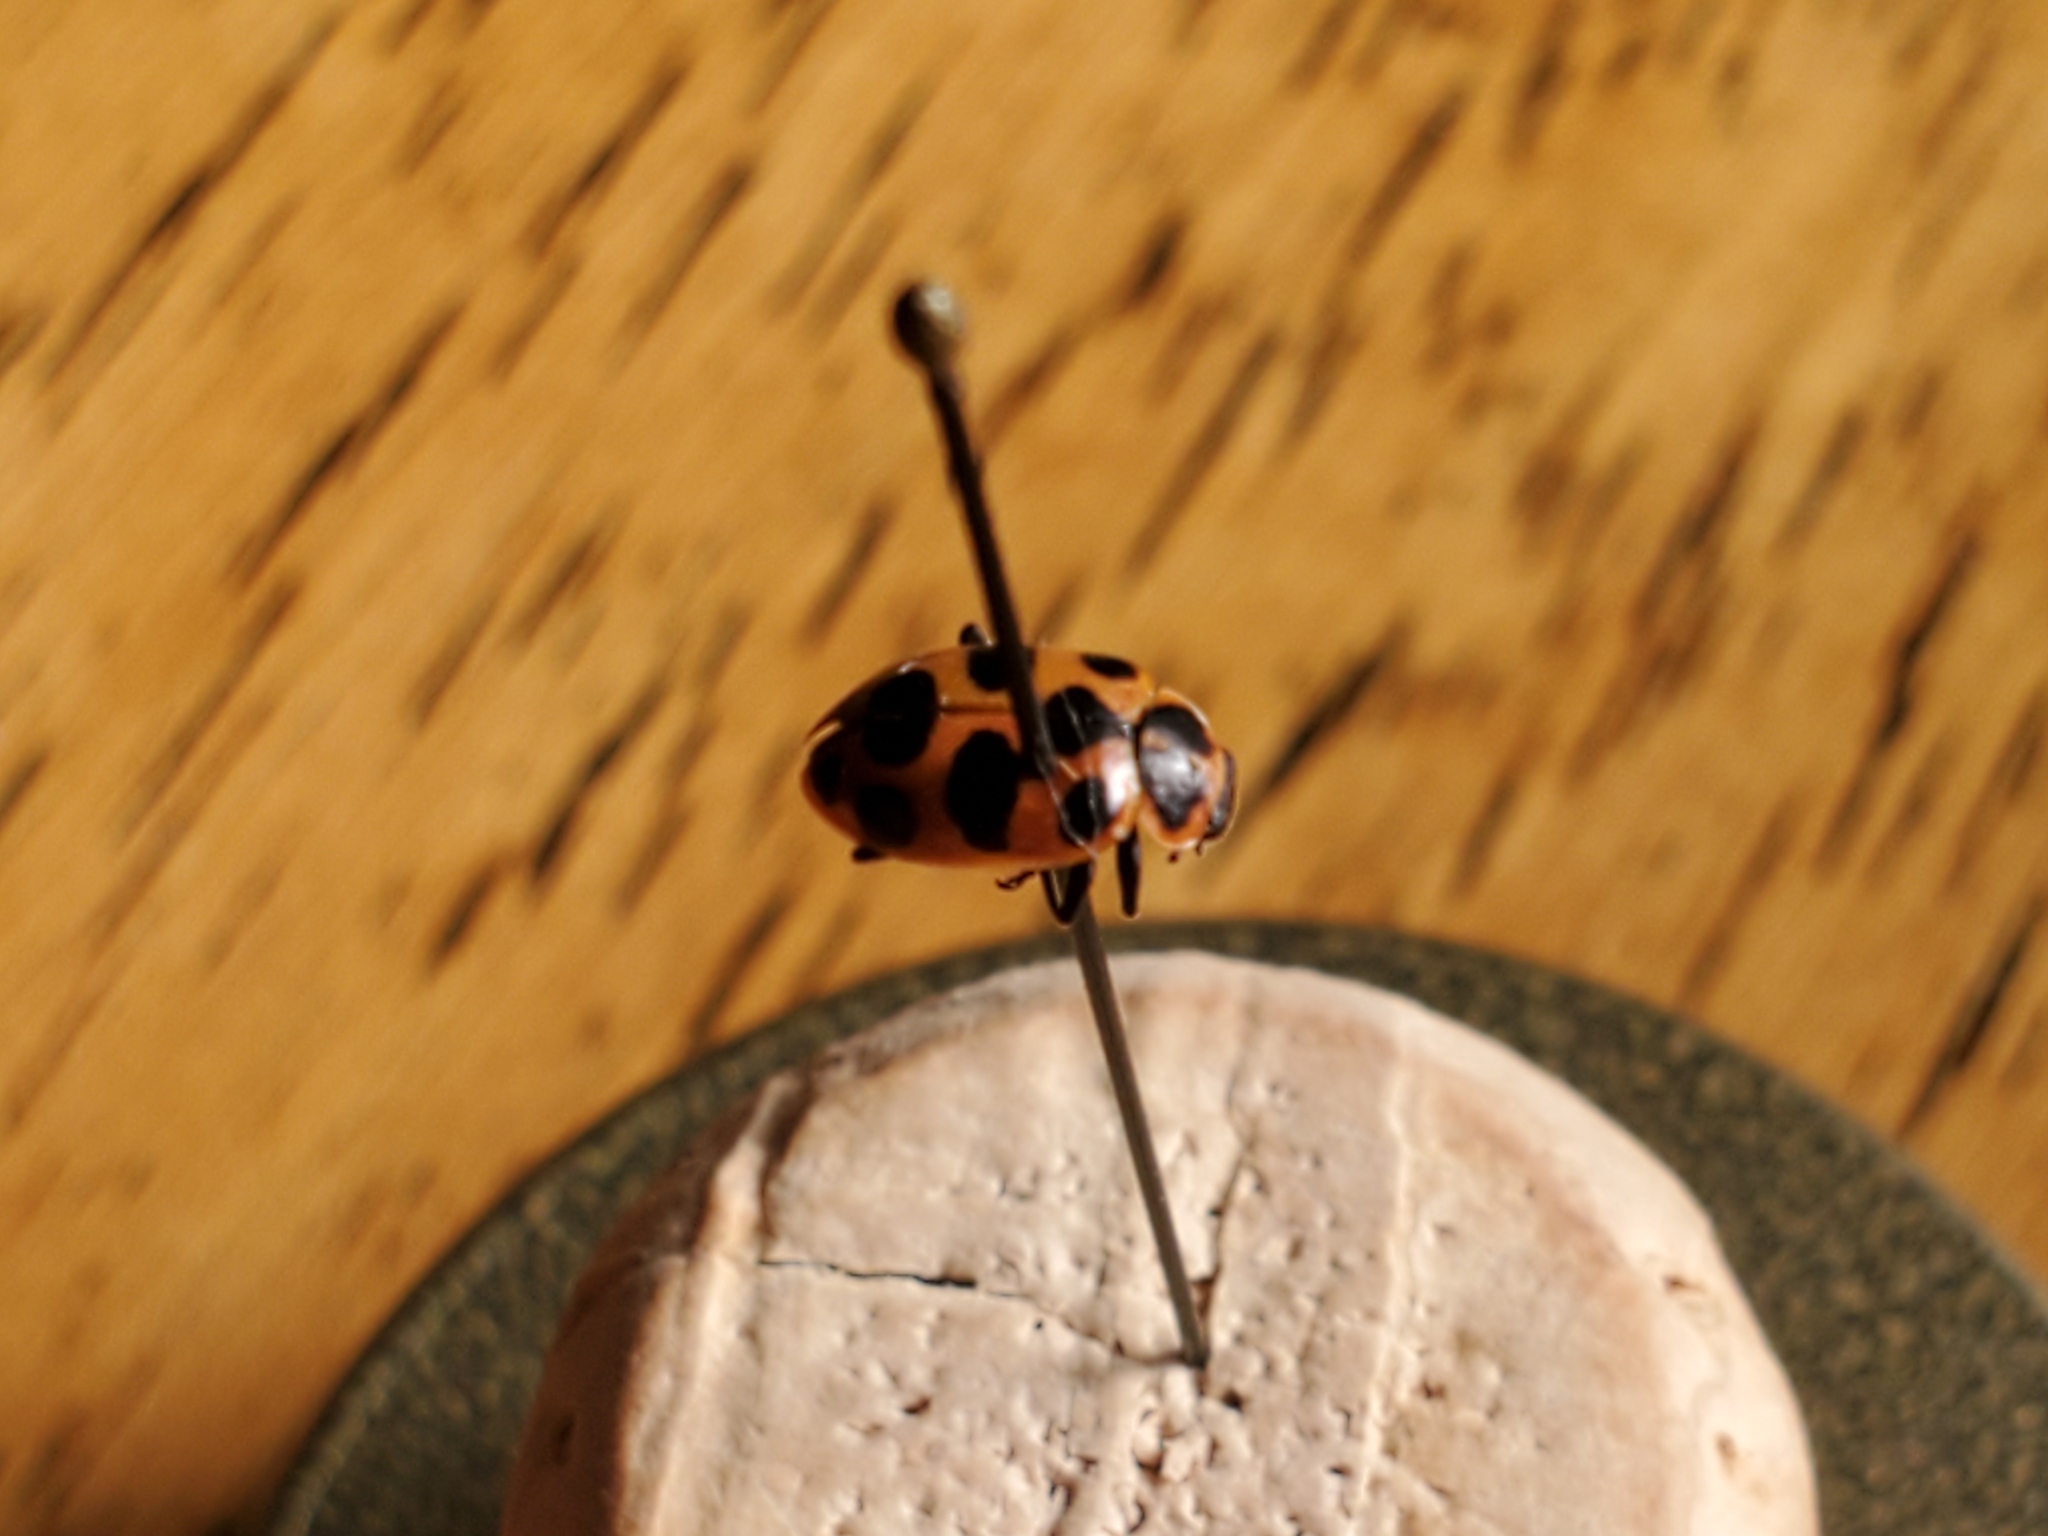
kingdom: Animalia
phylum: Arthropoda
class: Insecta
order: Coleoptera
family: Coccinellidae
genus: Coleomegilla
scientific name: Coleomegilla maculata
